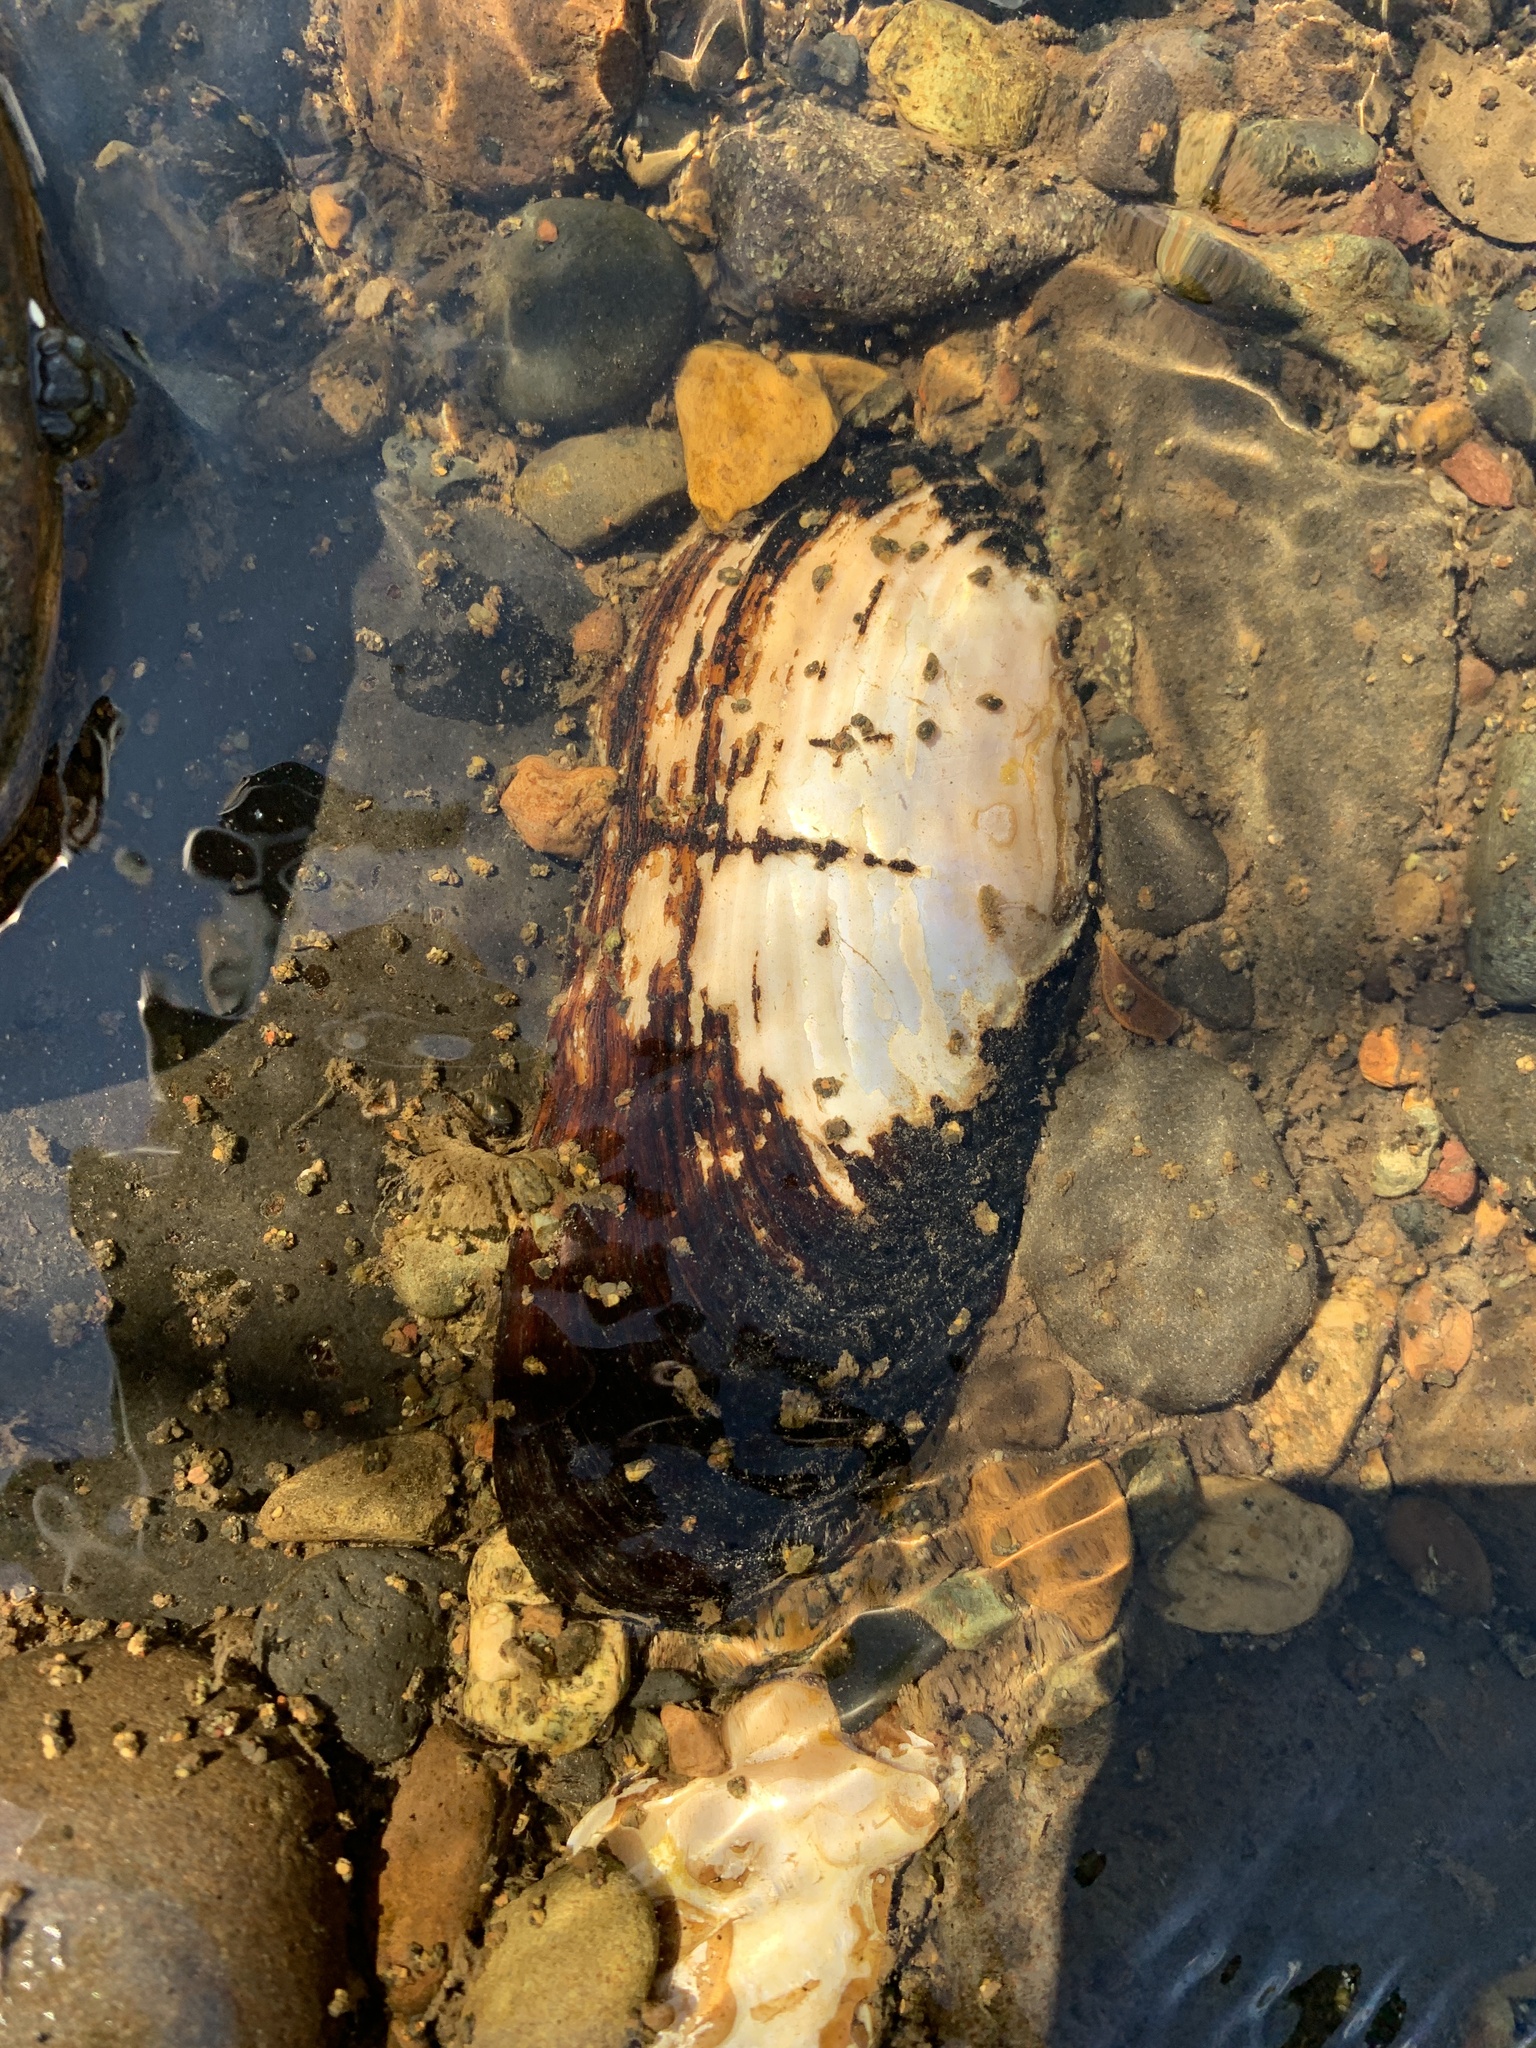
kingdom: Animalia
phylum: Mollusca
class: Bivalvia
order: Unionida
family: Margaritiferidae
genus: Margaritifera
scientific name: Margaritifera falcata
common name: Western pearlshell
